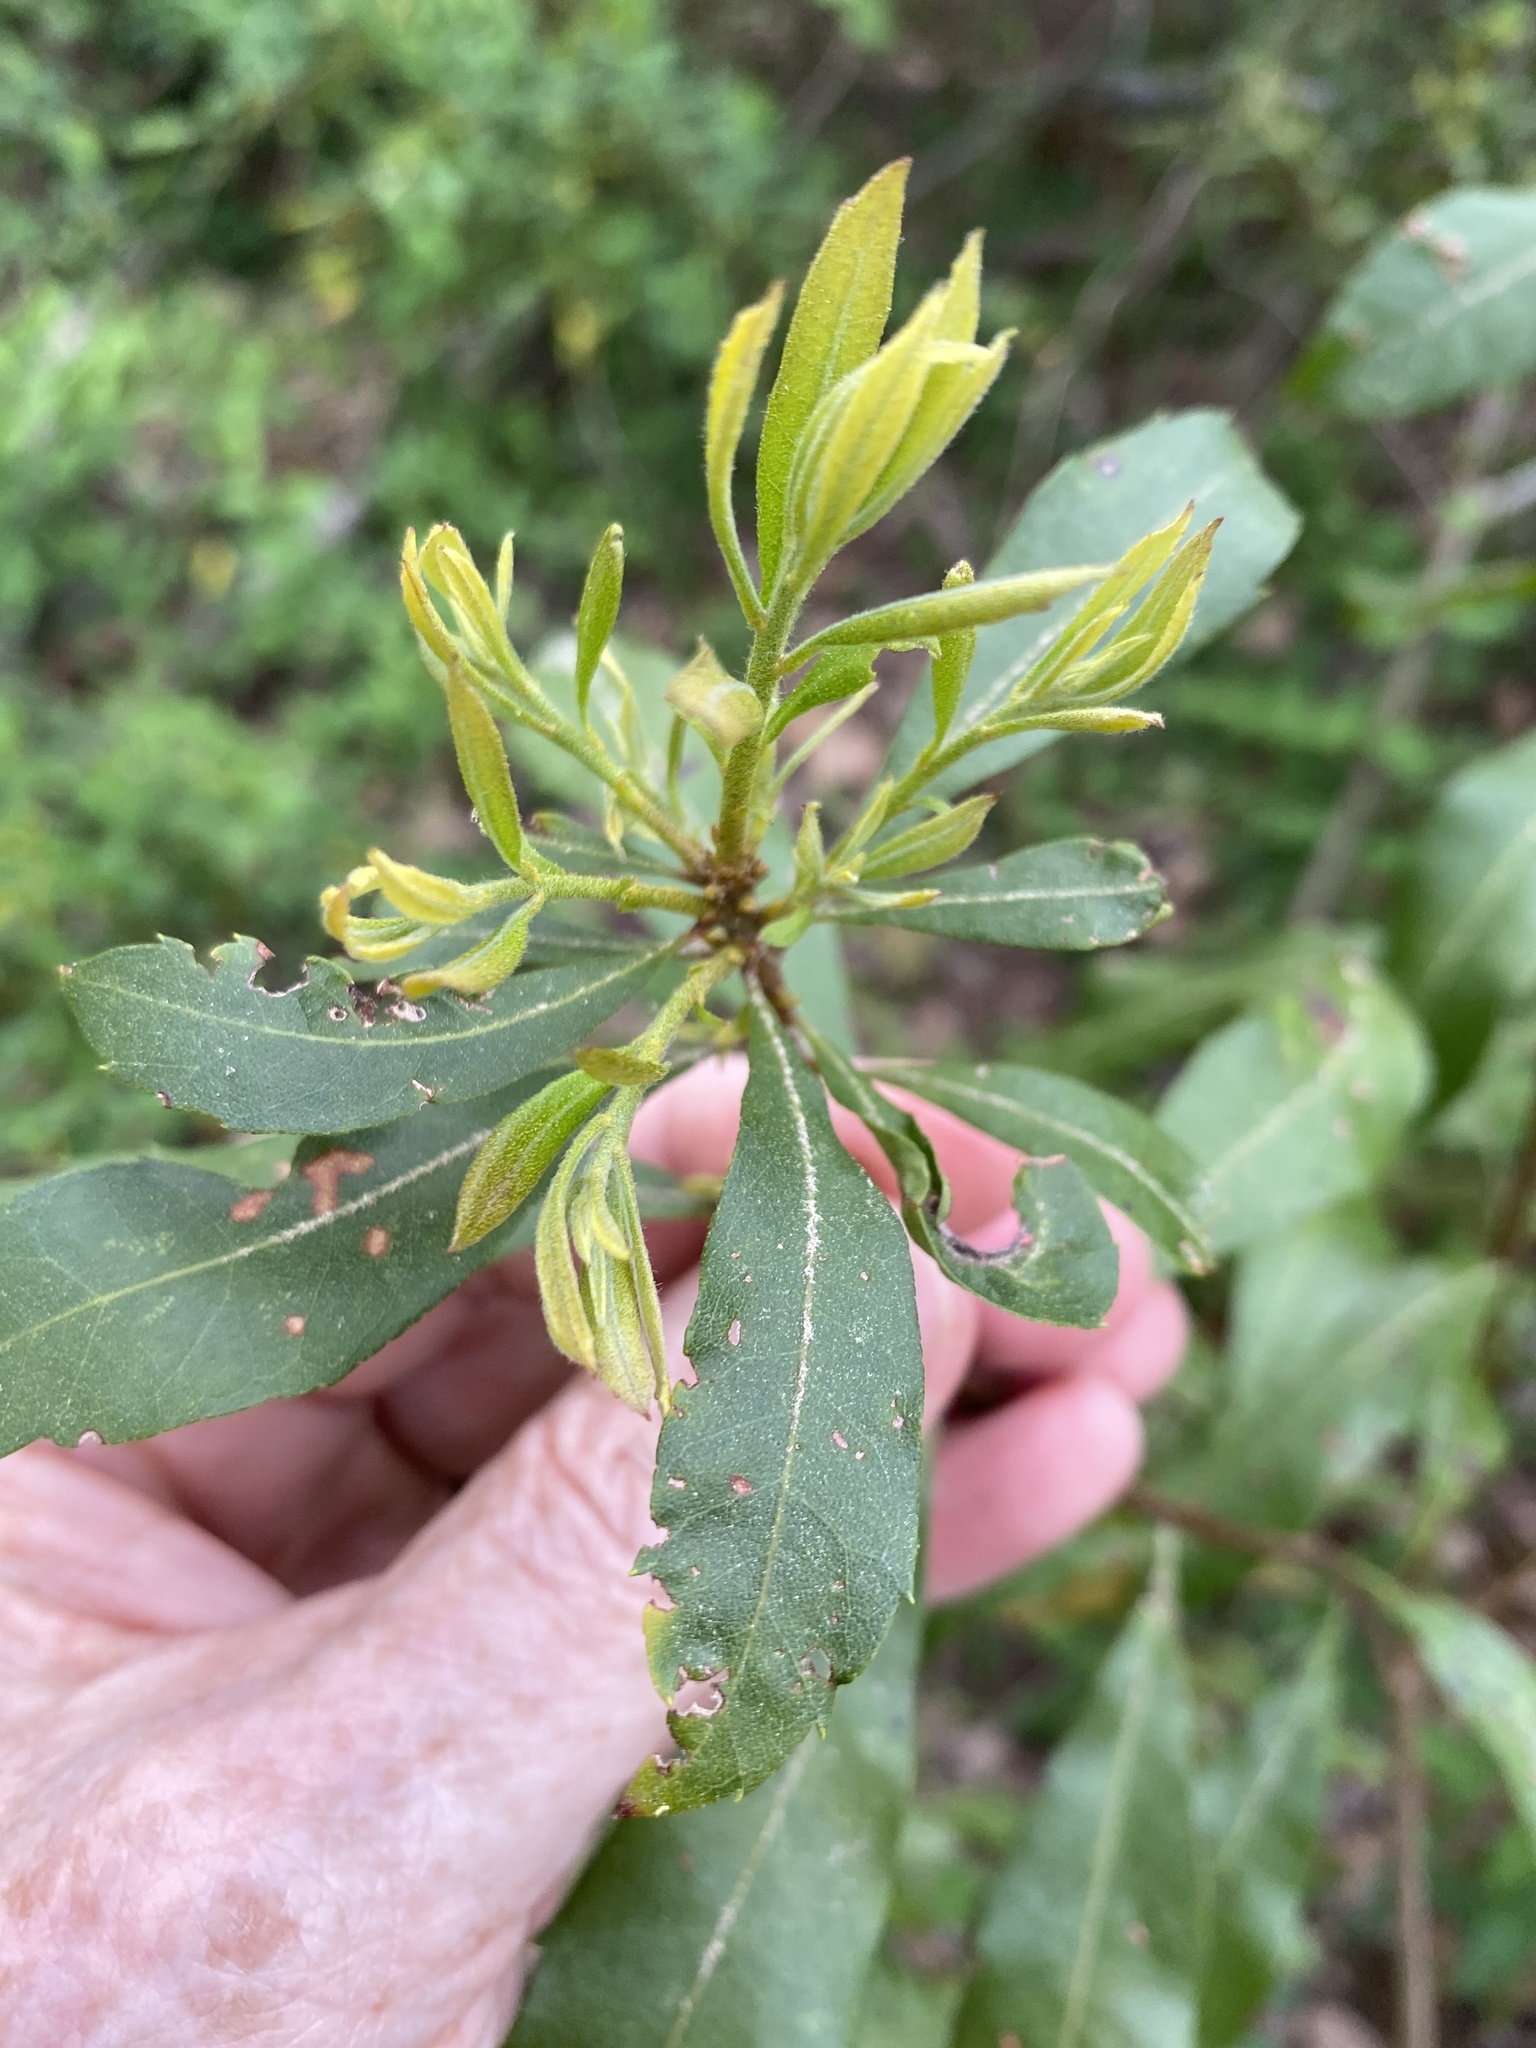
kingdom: Plantae
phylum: Tracheophyta
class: Magnoliopsida
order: Fagales
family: Myricaceae
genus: Morella
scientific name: Morella cerifera
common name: Wax myrtle
